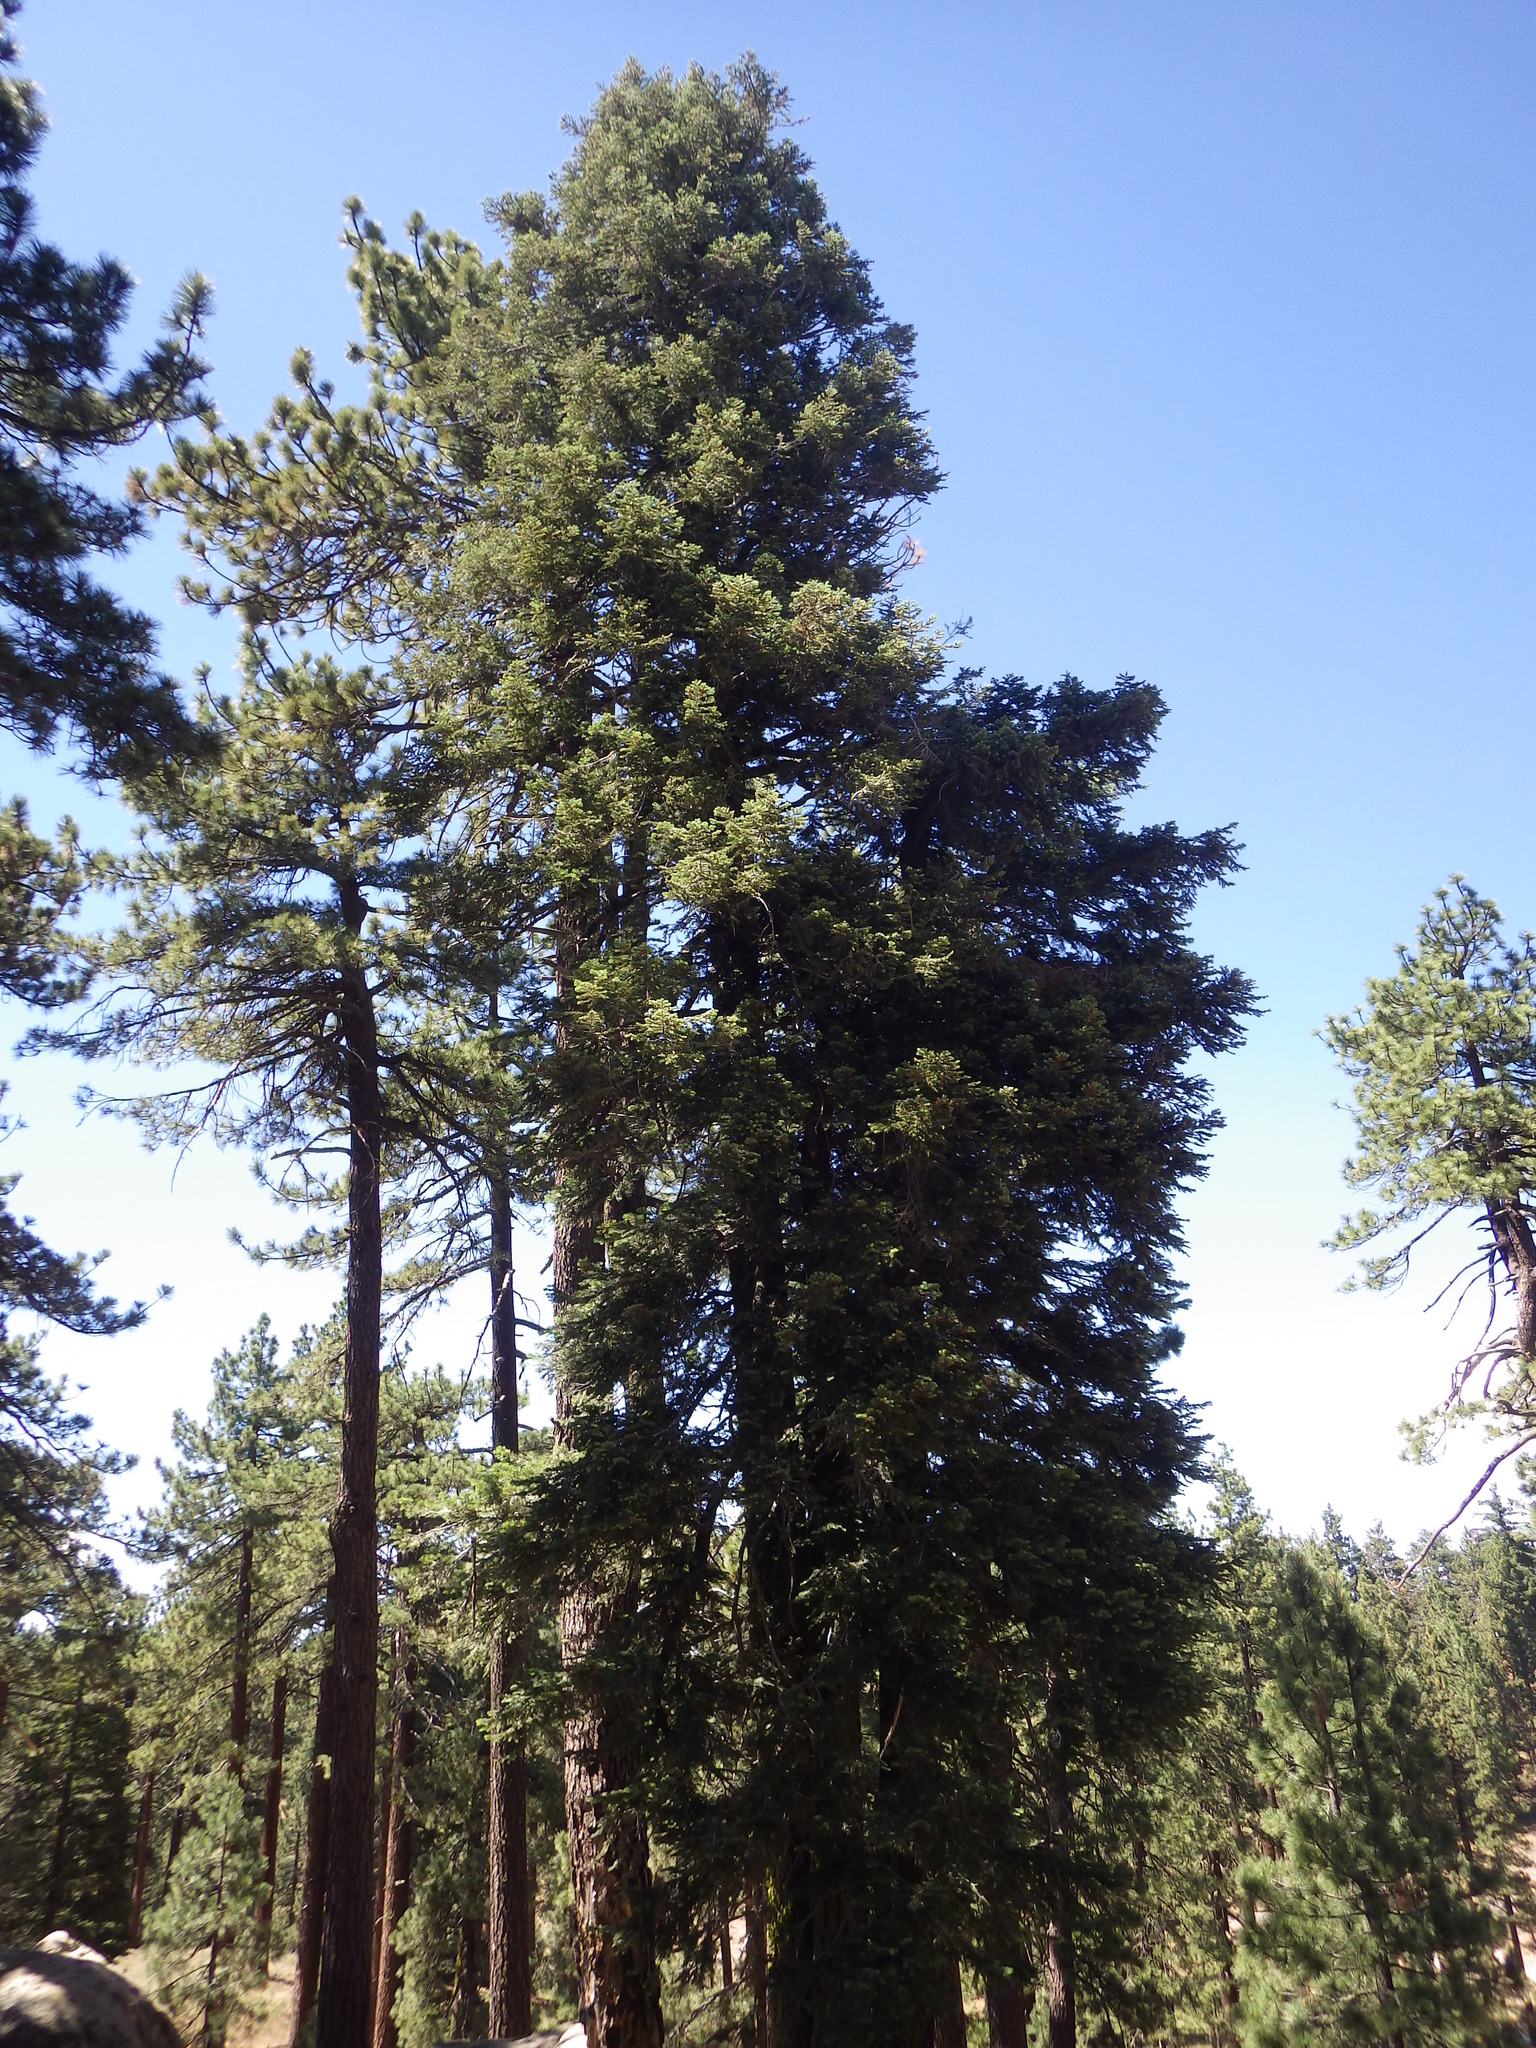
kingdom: Plantae
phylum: Tracheophyta
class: Pinopsida
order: Pinales
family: Pinaceae
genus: Abies
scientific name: Abies concolor
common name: Colorado fir
